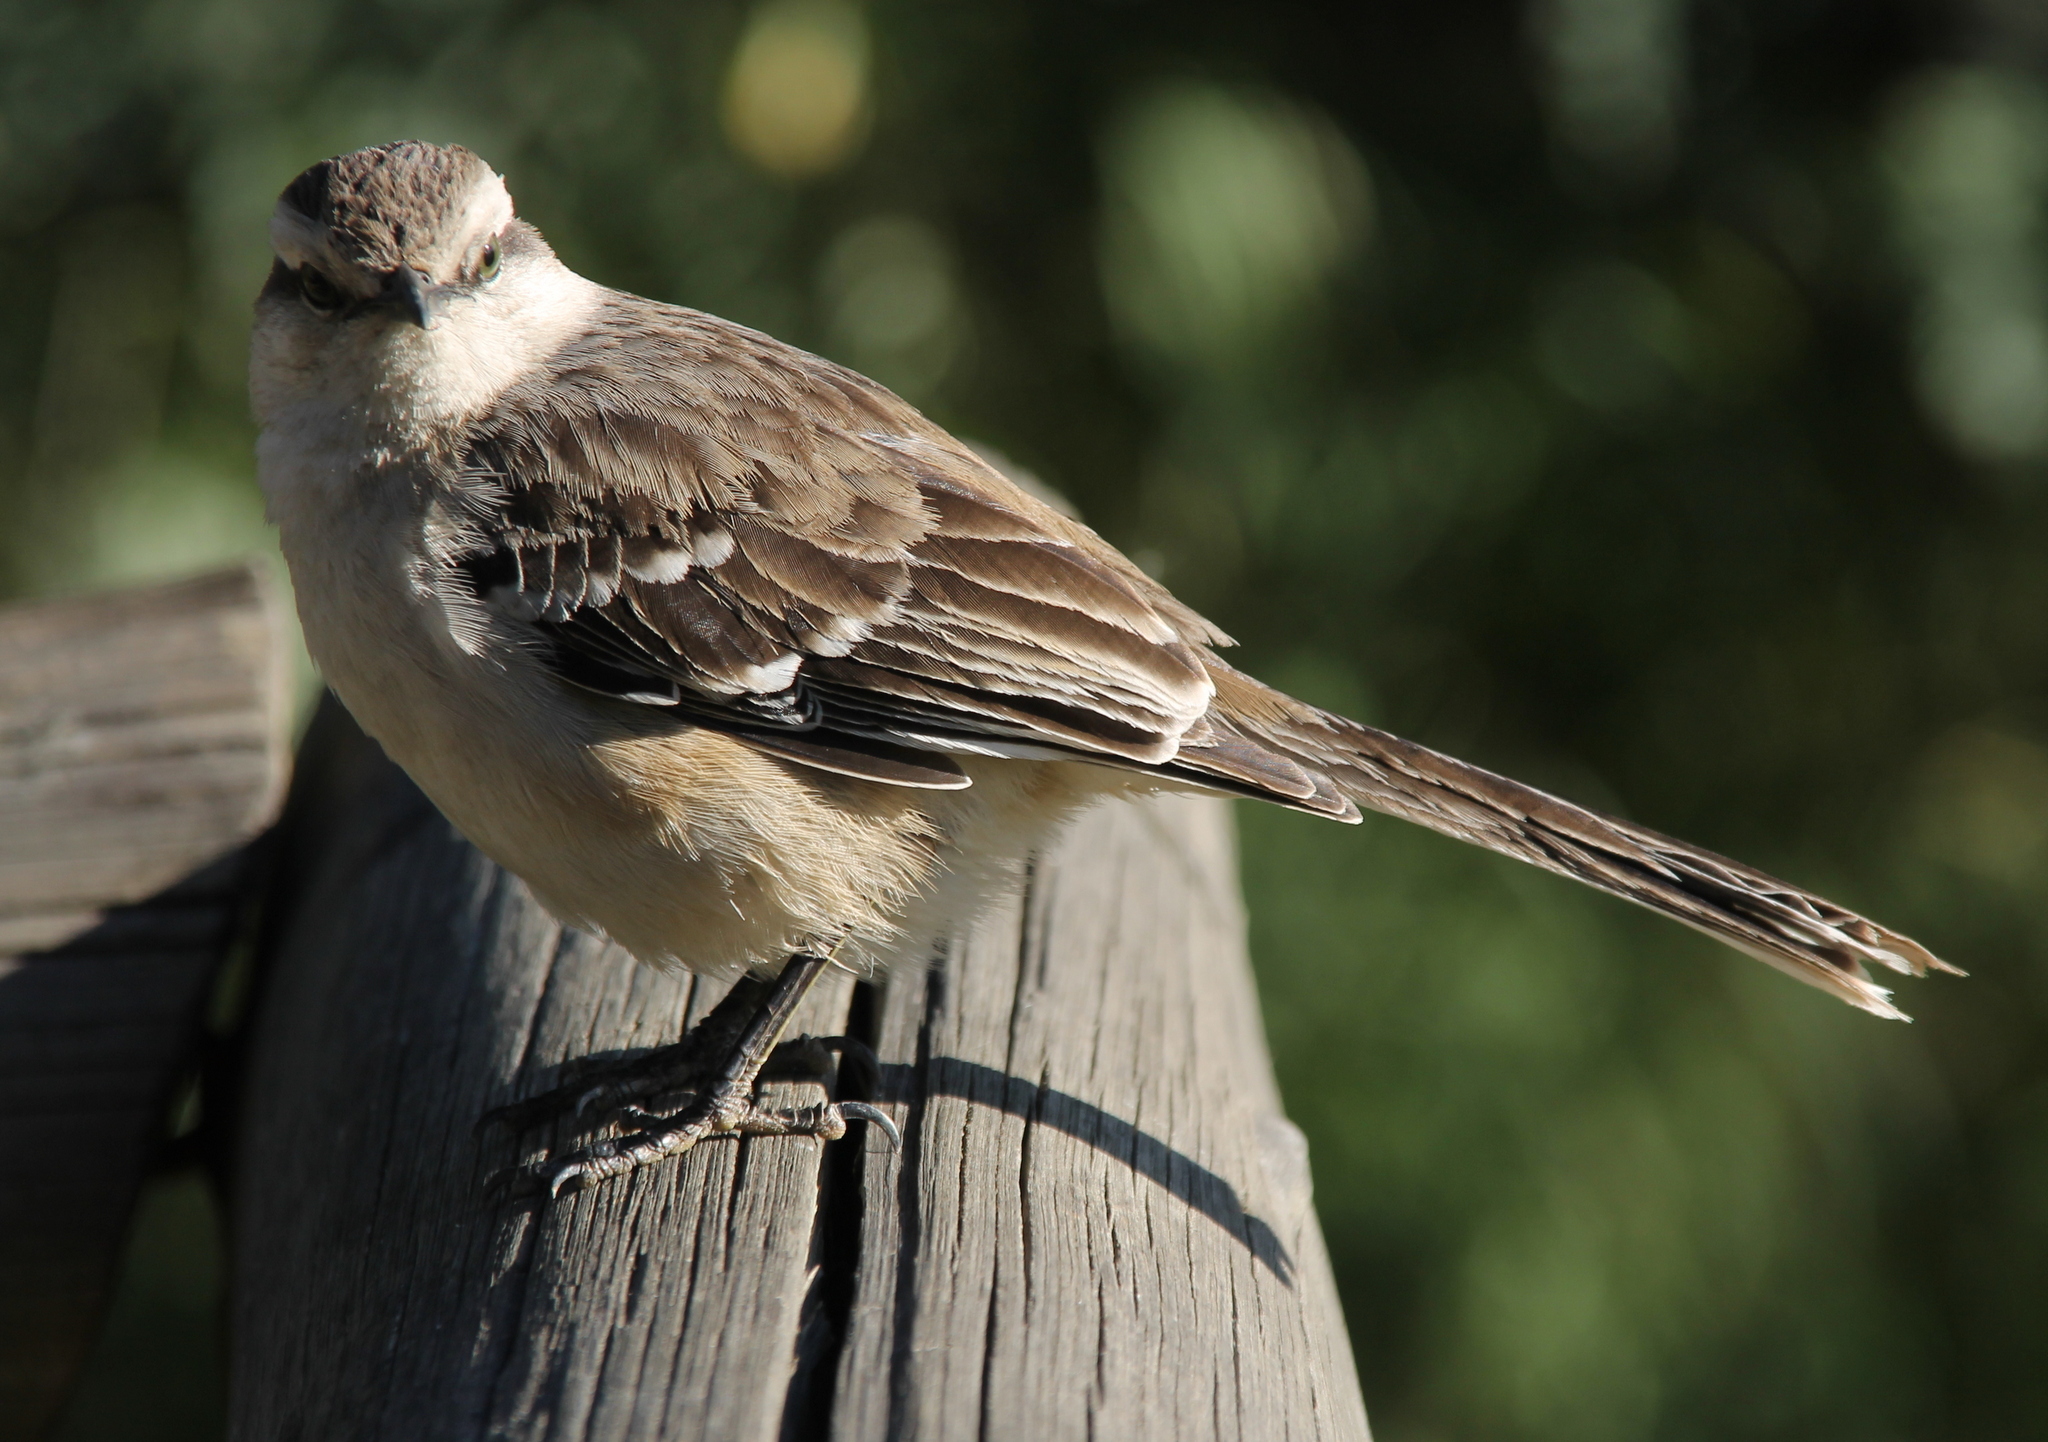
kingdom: Animalia
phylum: Chordata
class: Aves
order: Passeriformes
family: Mimidae
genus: Mimus
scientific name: Mimus saturninus
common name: Chalk-browed mockingbird
